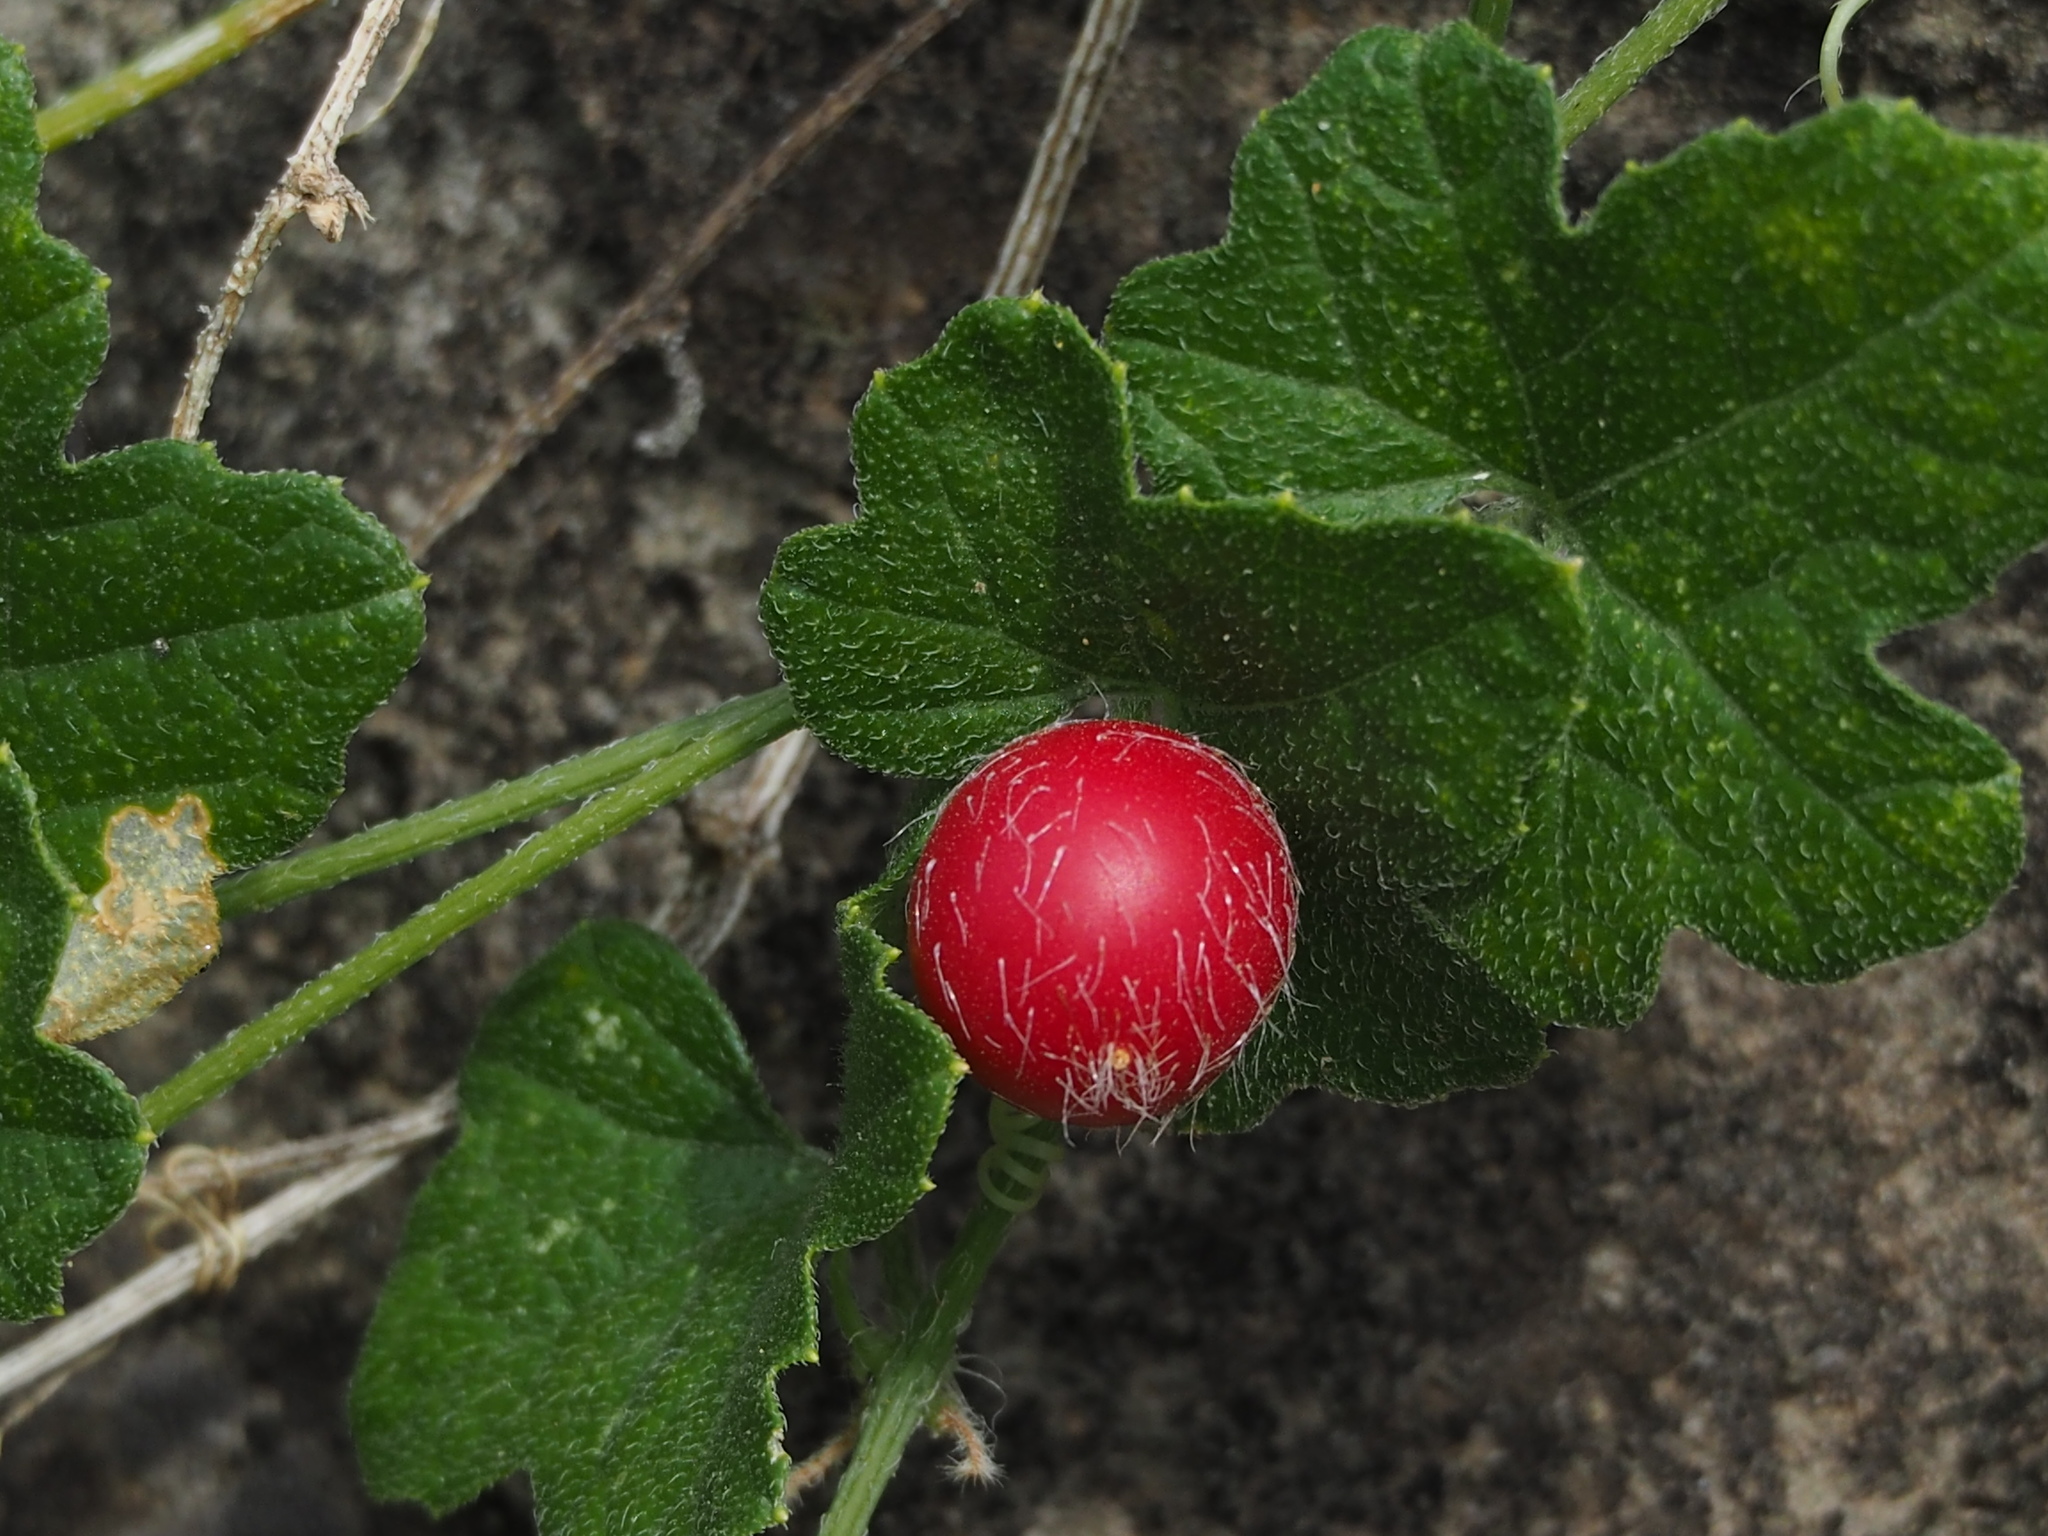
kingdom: Plantae
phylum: Tracheophyta
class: Magnoliopsida
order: Cucurbitales
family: Cucurbitaceae
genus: Cucumis
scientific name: Cucumis maderaspatanus
